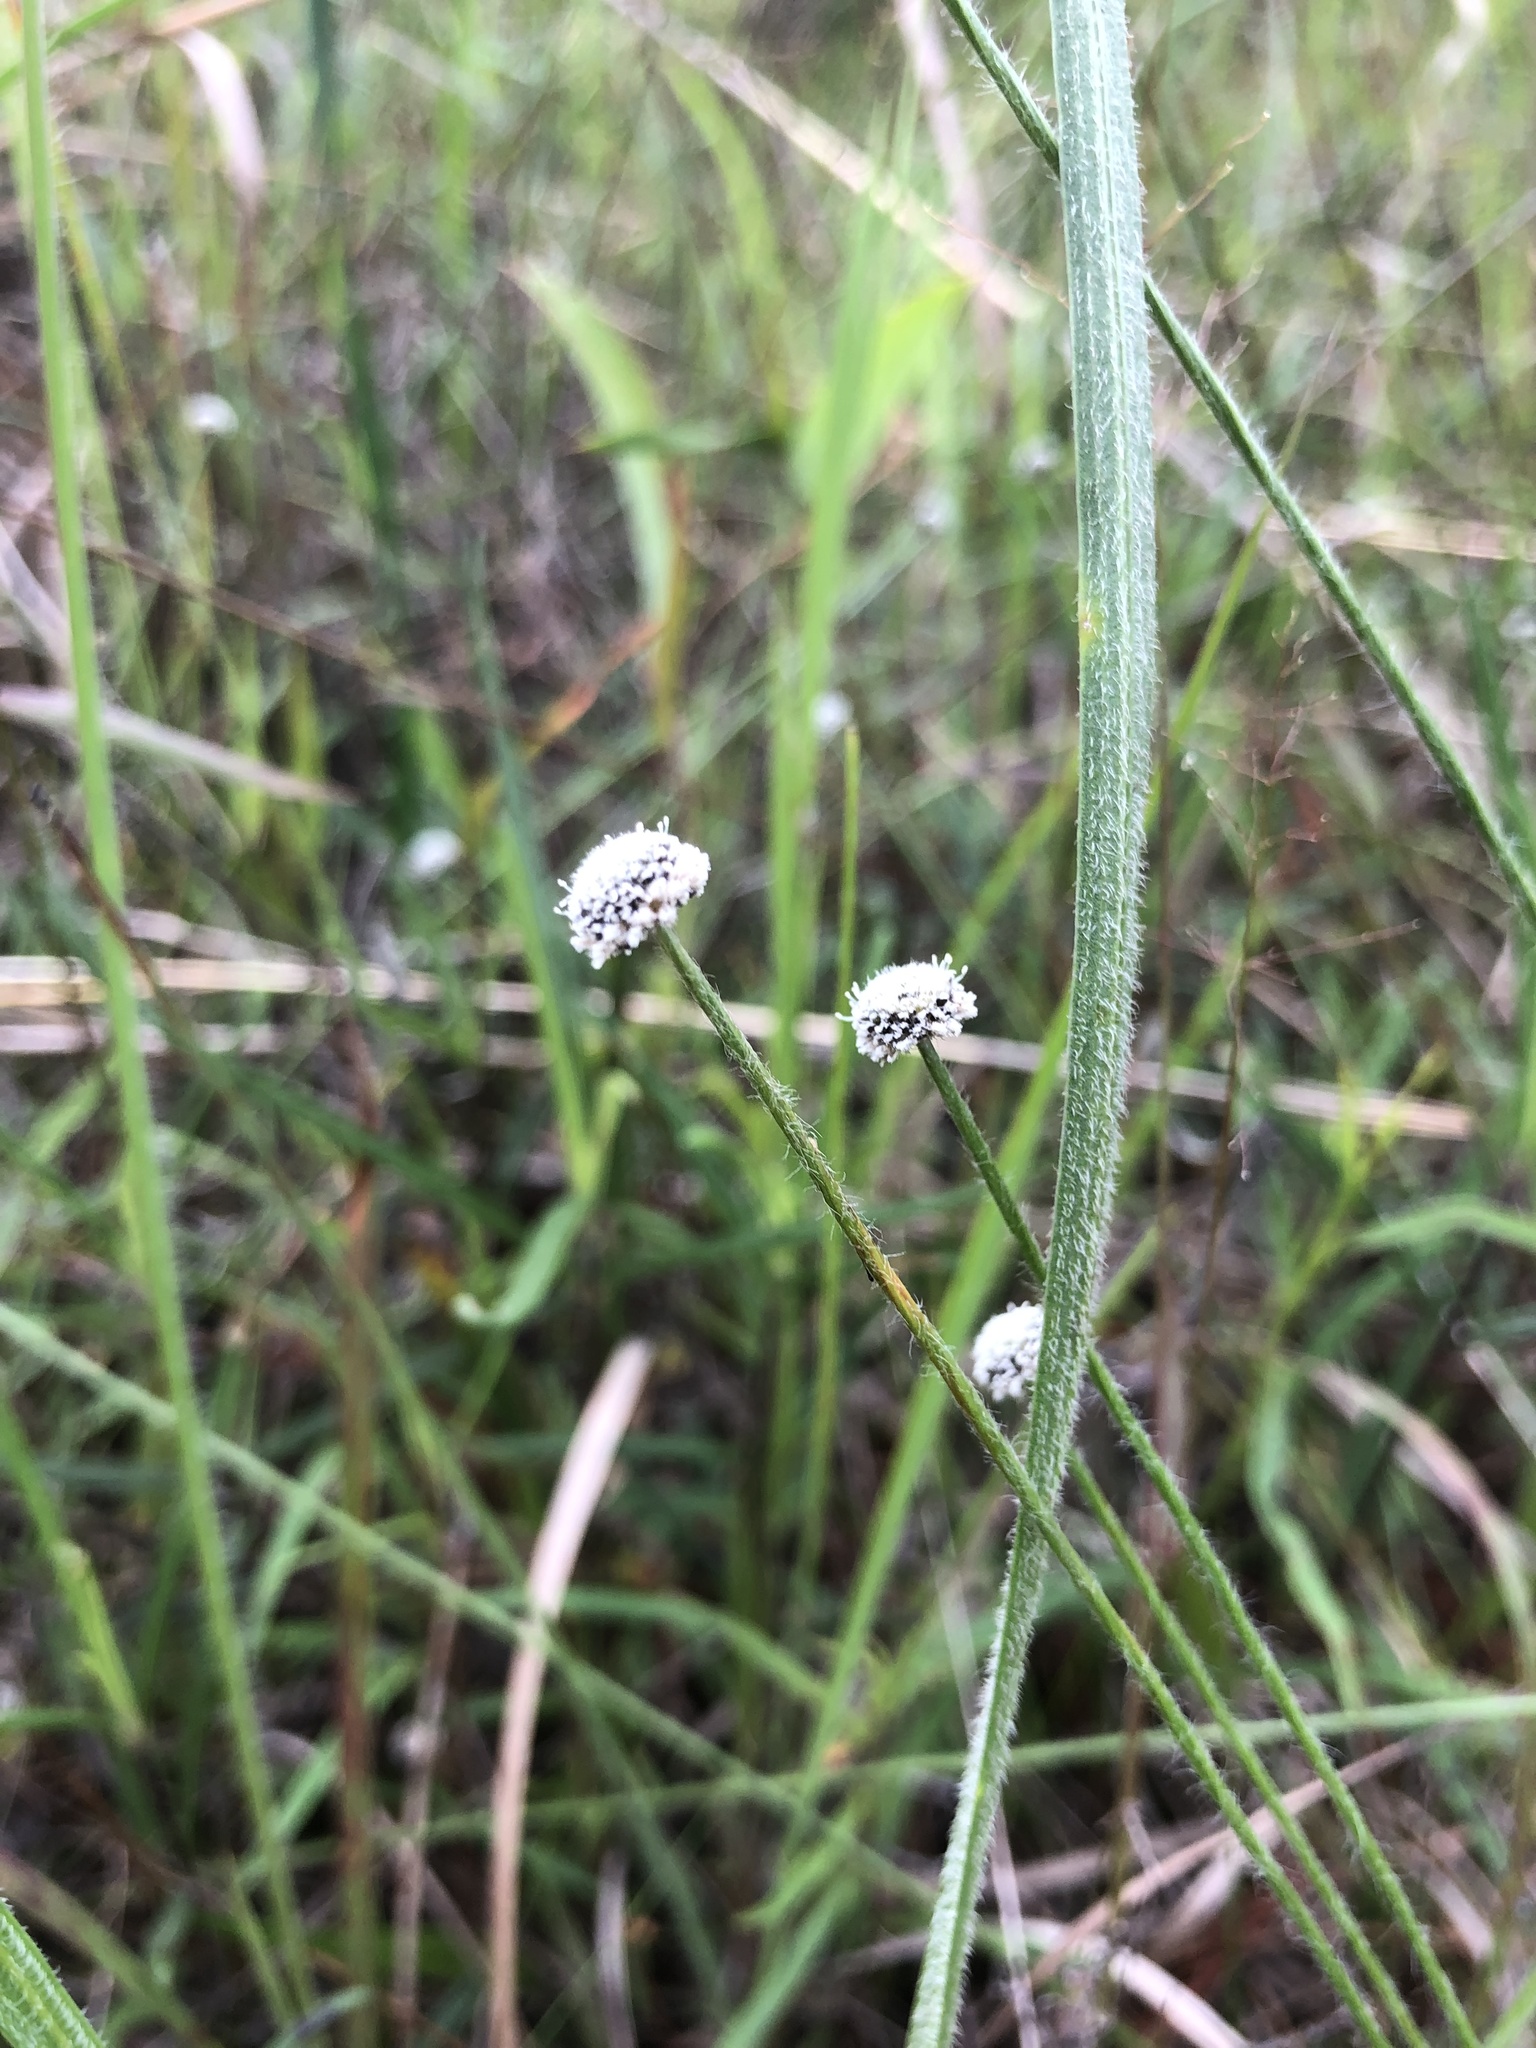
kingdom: Plantae
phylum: Tracheophyta
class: Liliopsida
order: Poales
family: Eriocaulaceae
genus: Paepalanthus
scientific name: Paepalanthus anceps
